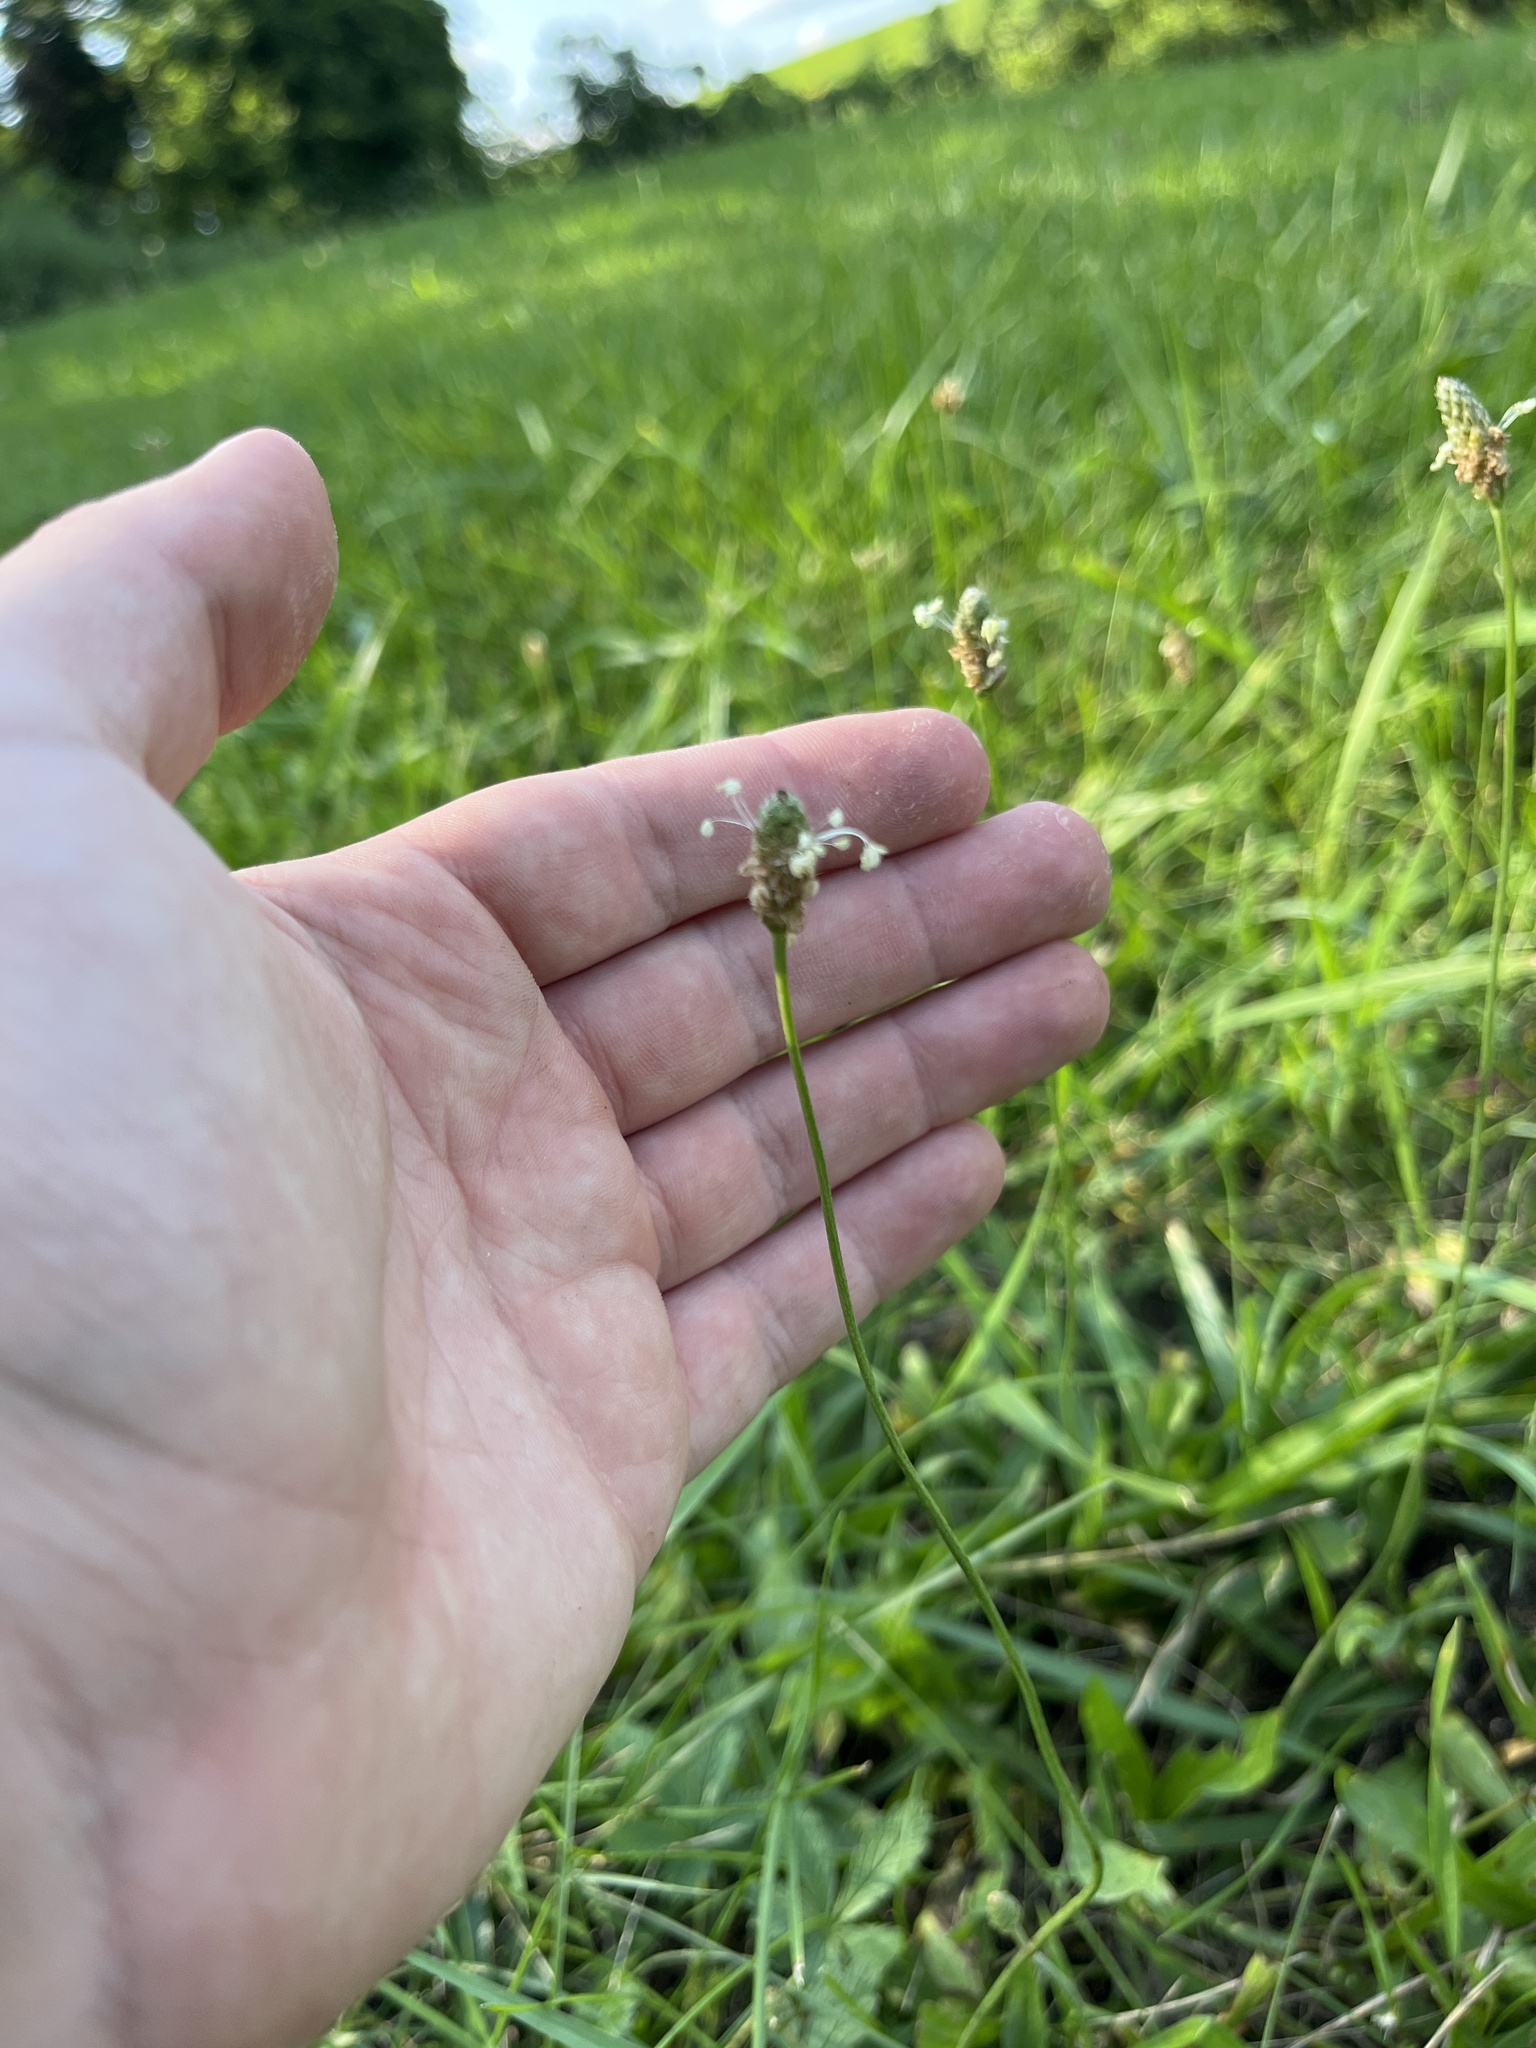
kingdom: Plantae
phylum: Tracheophyta
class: Magnoliopsida
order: Lamiales
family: Plantaginaceae
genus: Plantago
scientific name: Plantago lanceolata
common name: Ribwort plantain
